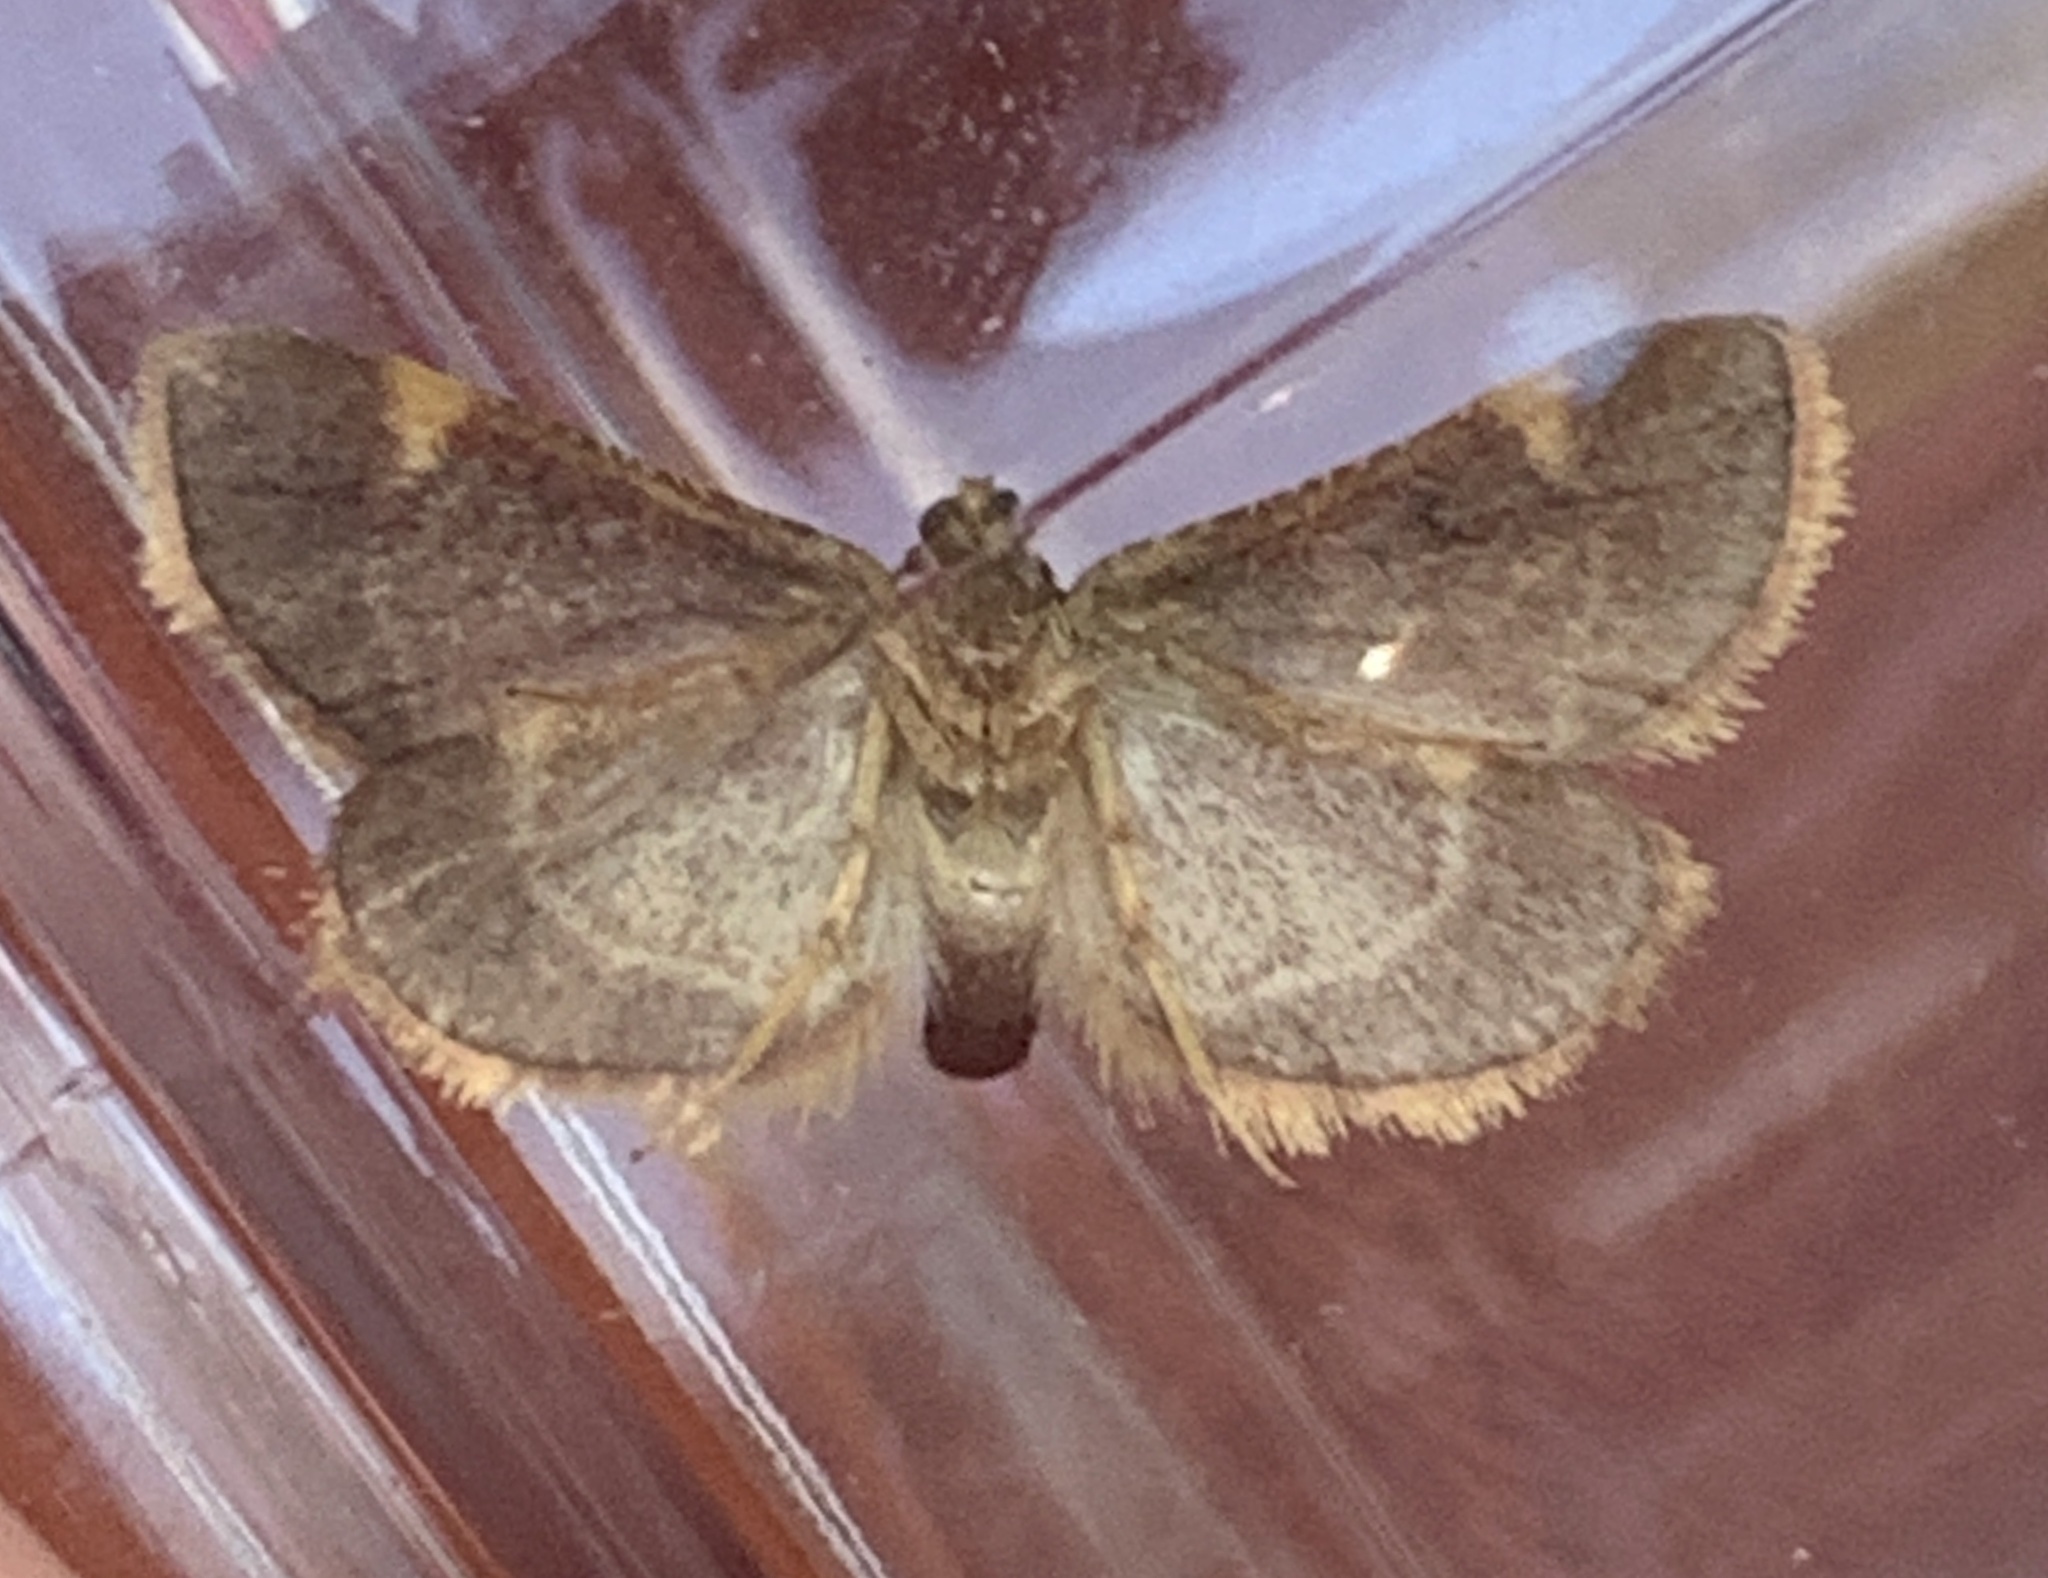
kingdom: Animalia
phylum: Arthropoda
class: Insecta
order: Lepidoptera
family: Pyralidae
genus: Hypsopygia
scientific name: Hypsopygia olinalis
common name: Yellow-fringed dolichomia moth
